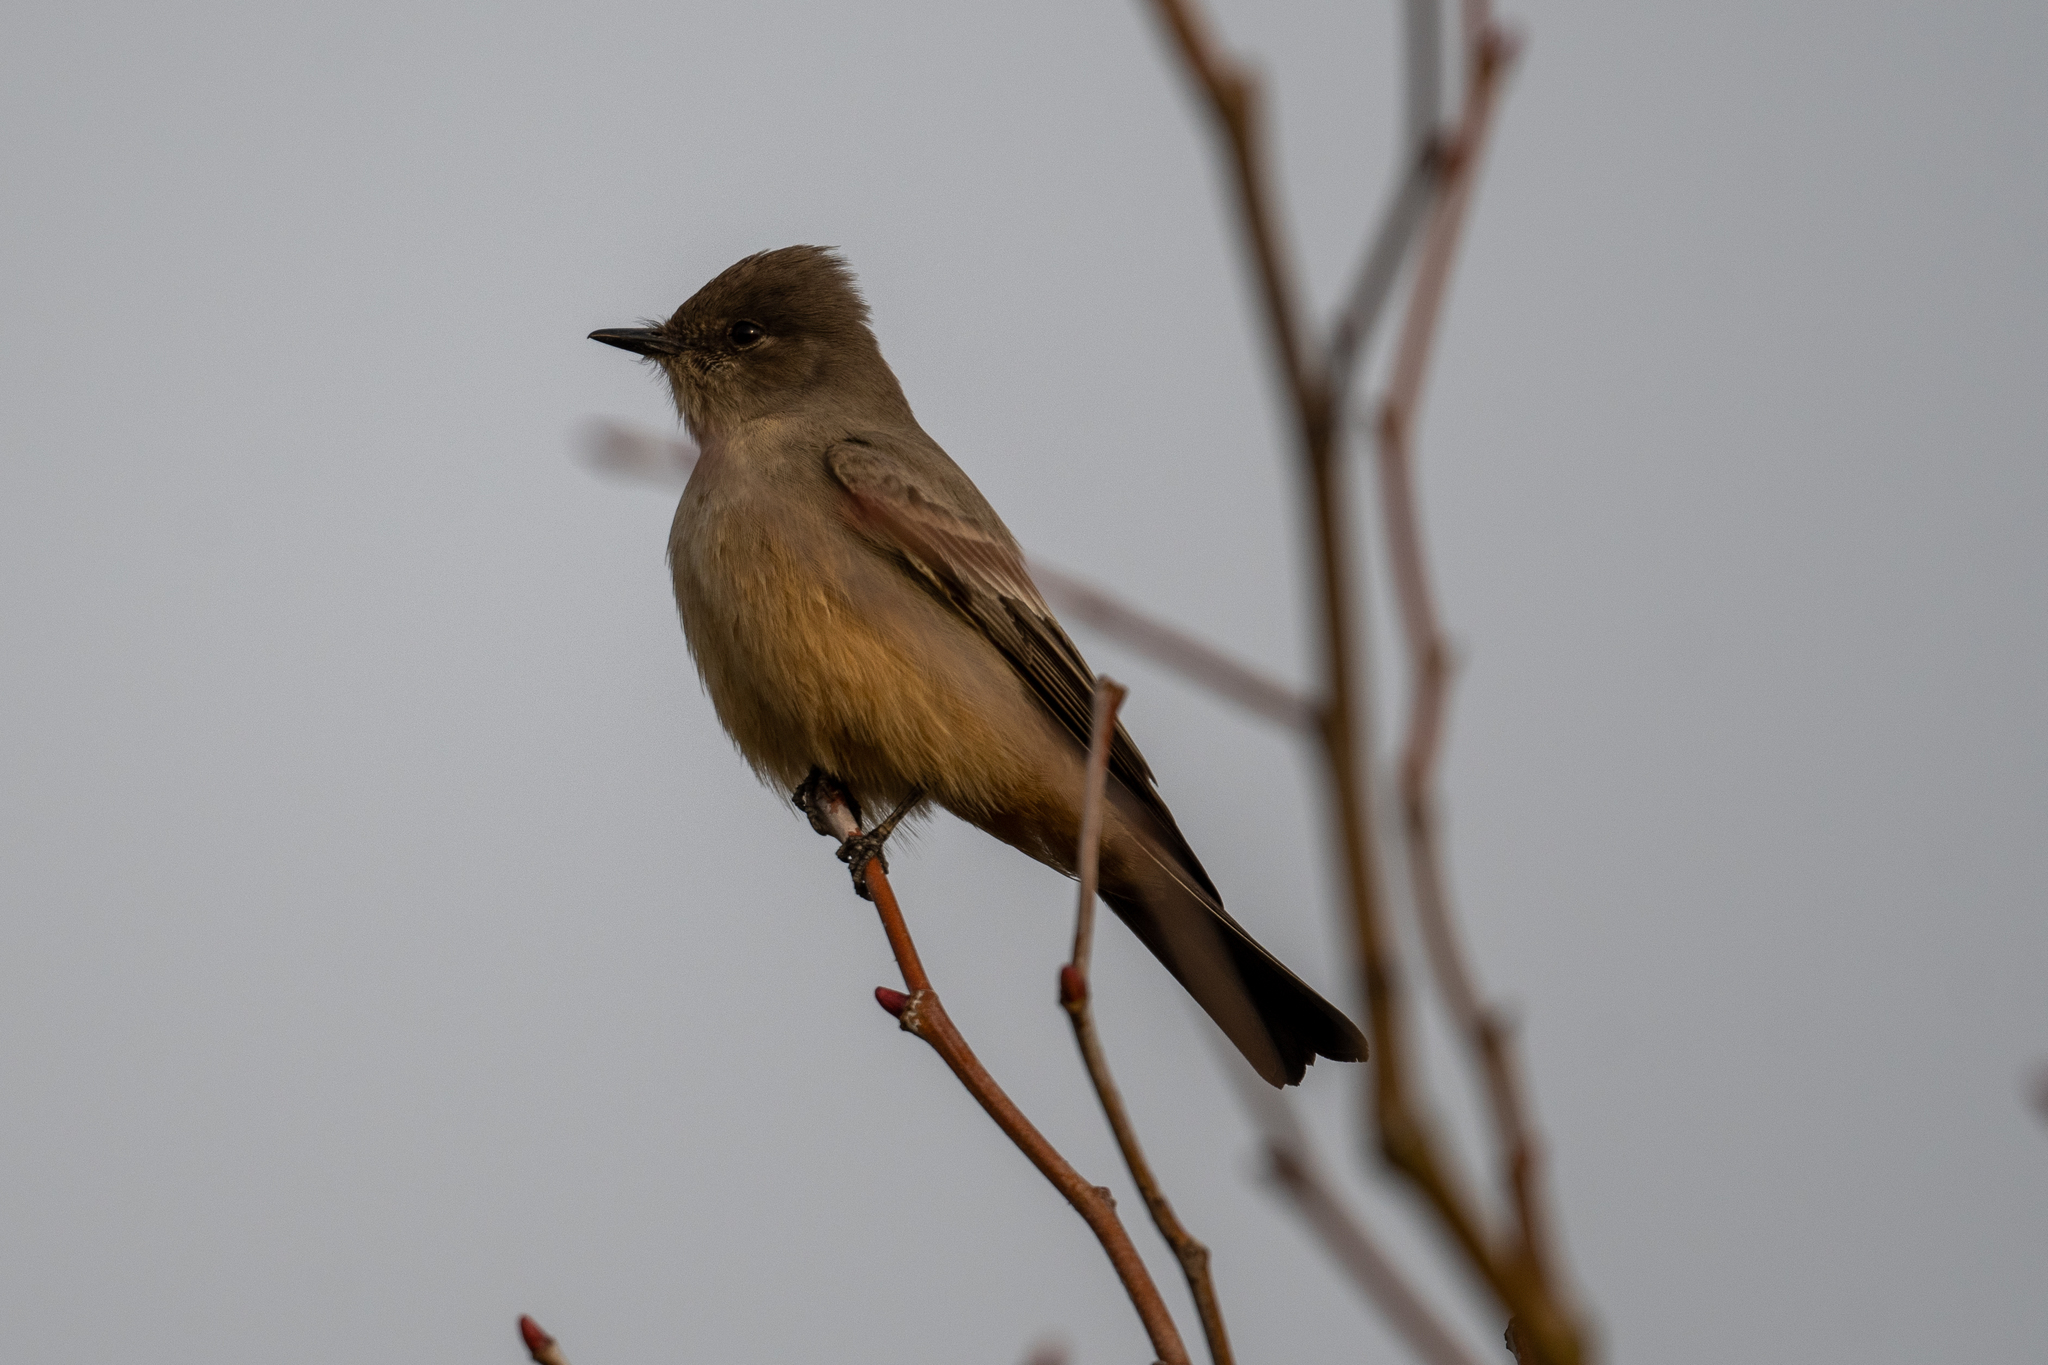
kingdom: Animalia
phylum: Chordata
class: Aves
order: Passeriformes
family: Tyrannidae
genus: Sayornis
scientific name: Sayornis saya
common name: Say's phoebe
